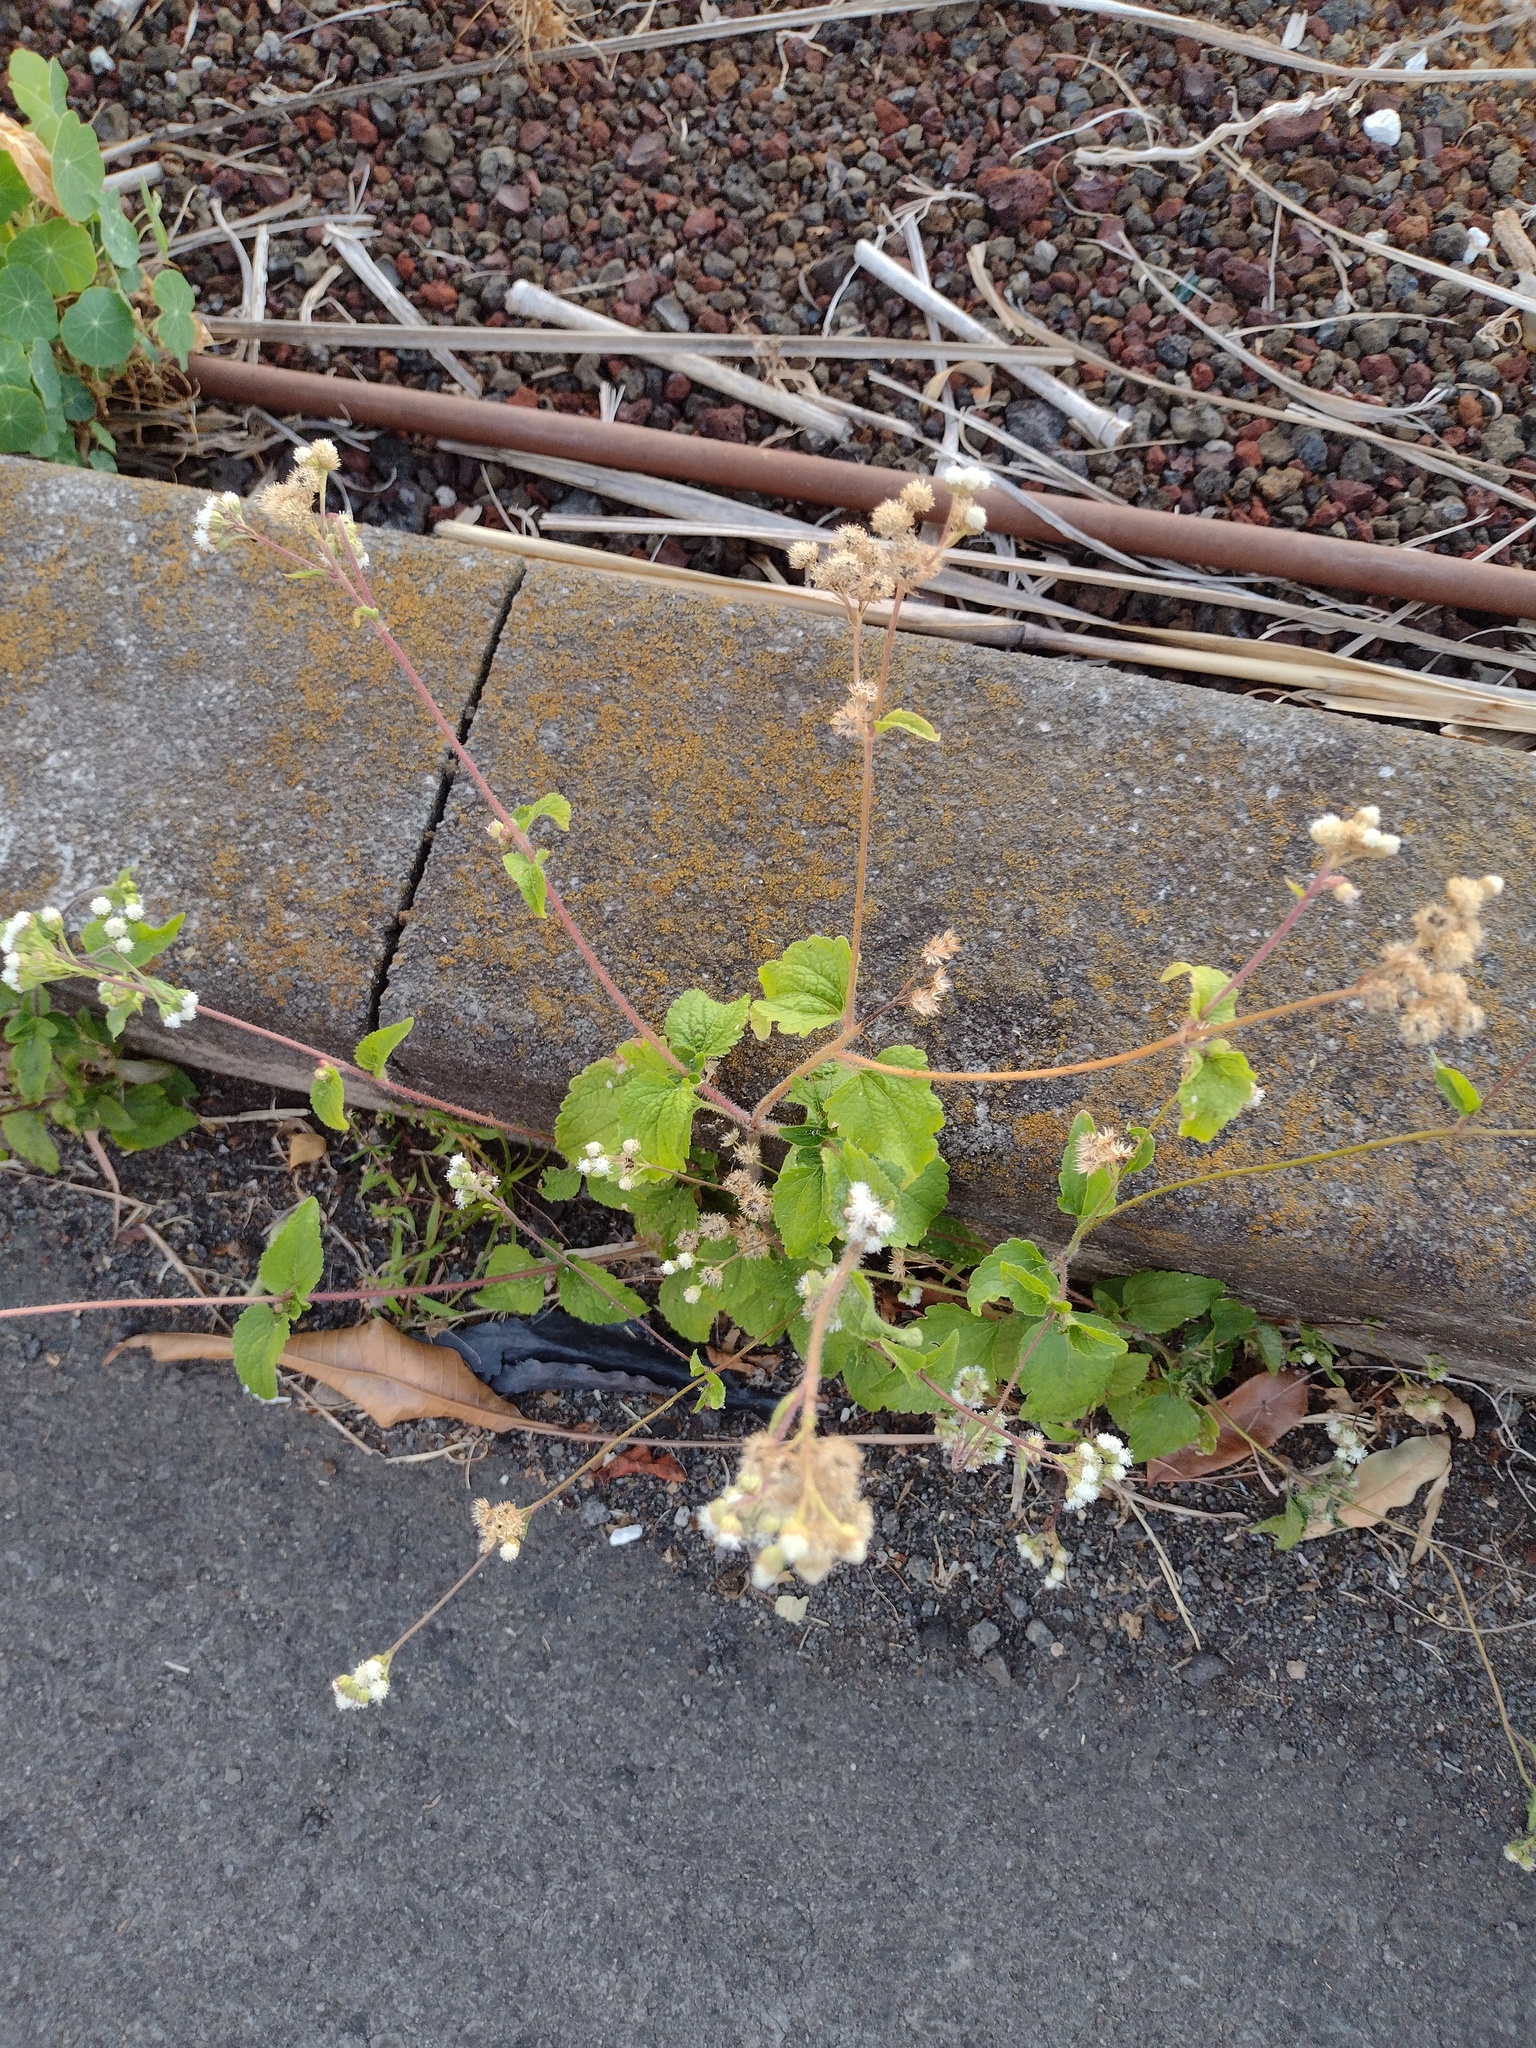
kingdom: Plantae
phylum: Tracheophyta
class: Magnoliopsida
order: Asterales
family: Asteraceae
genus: Ageratum
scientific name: Ageratum conyzoides
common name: Tropical whiteweed
